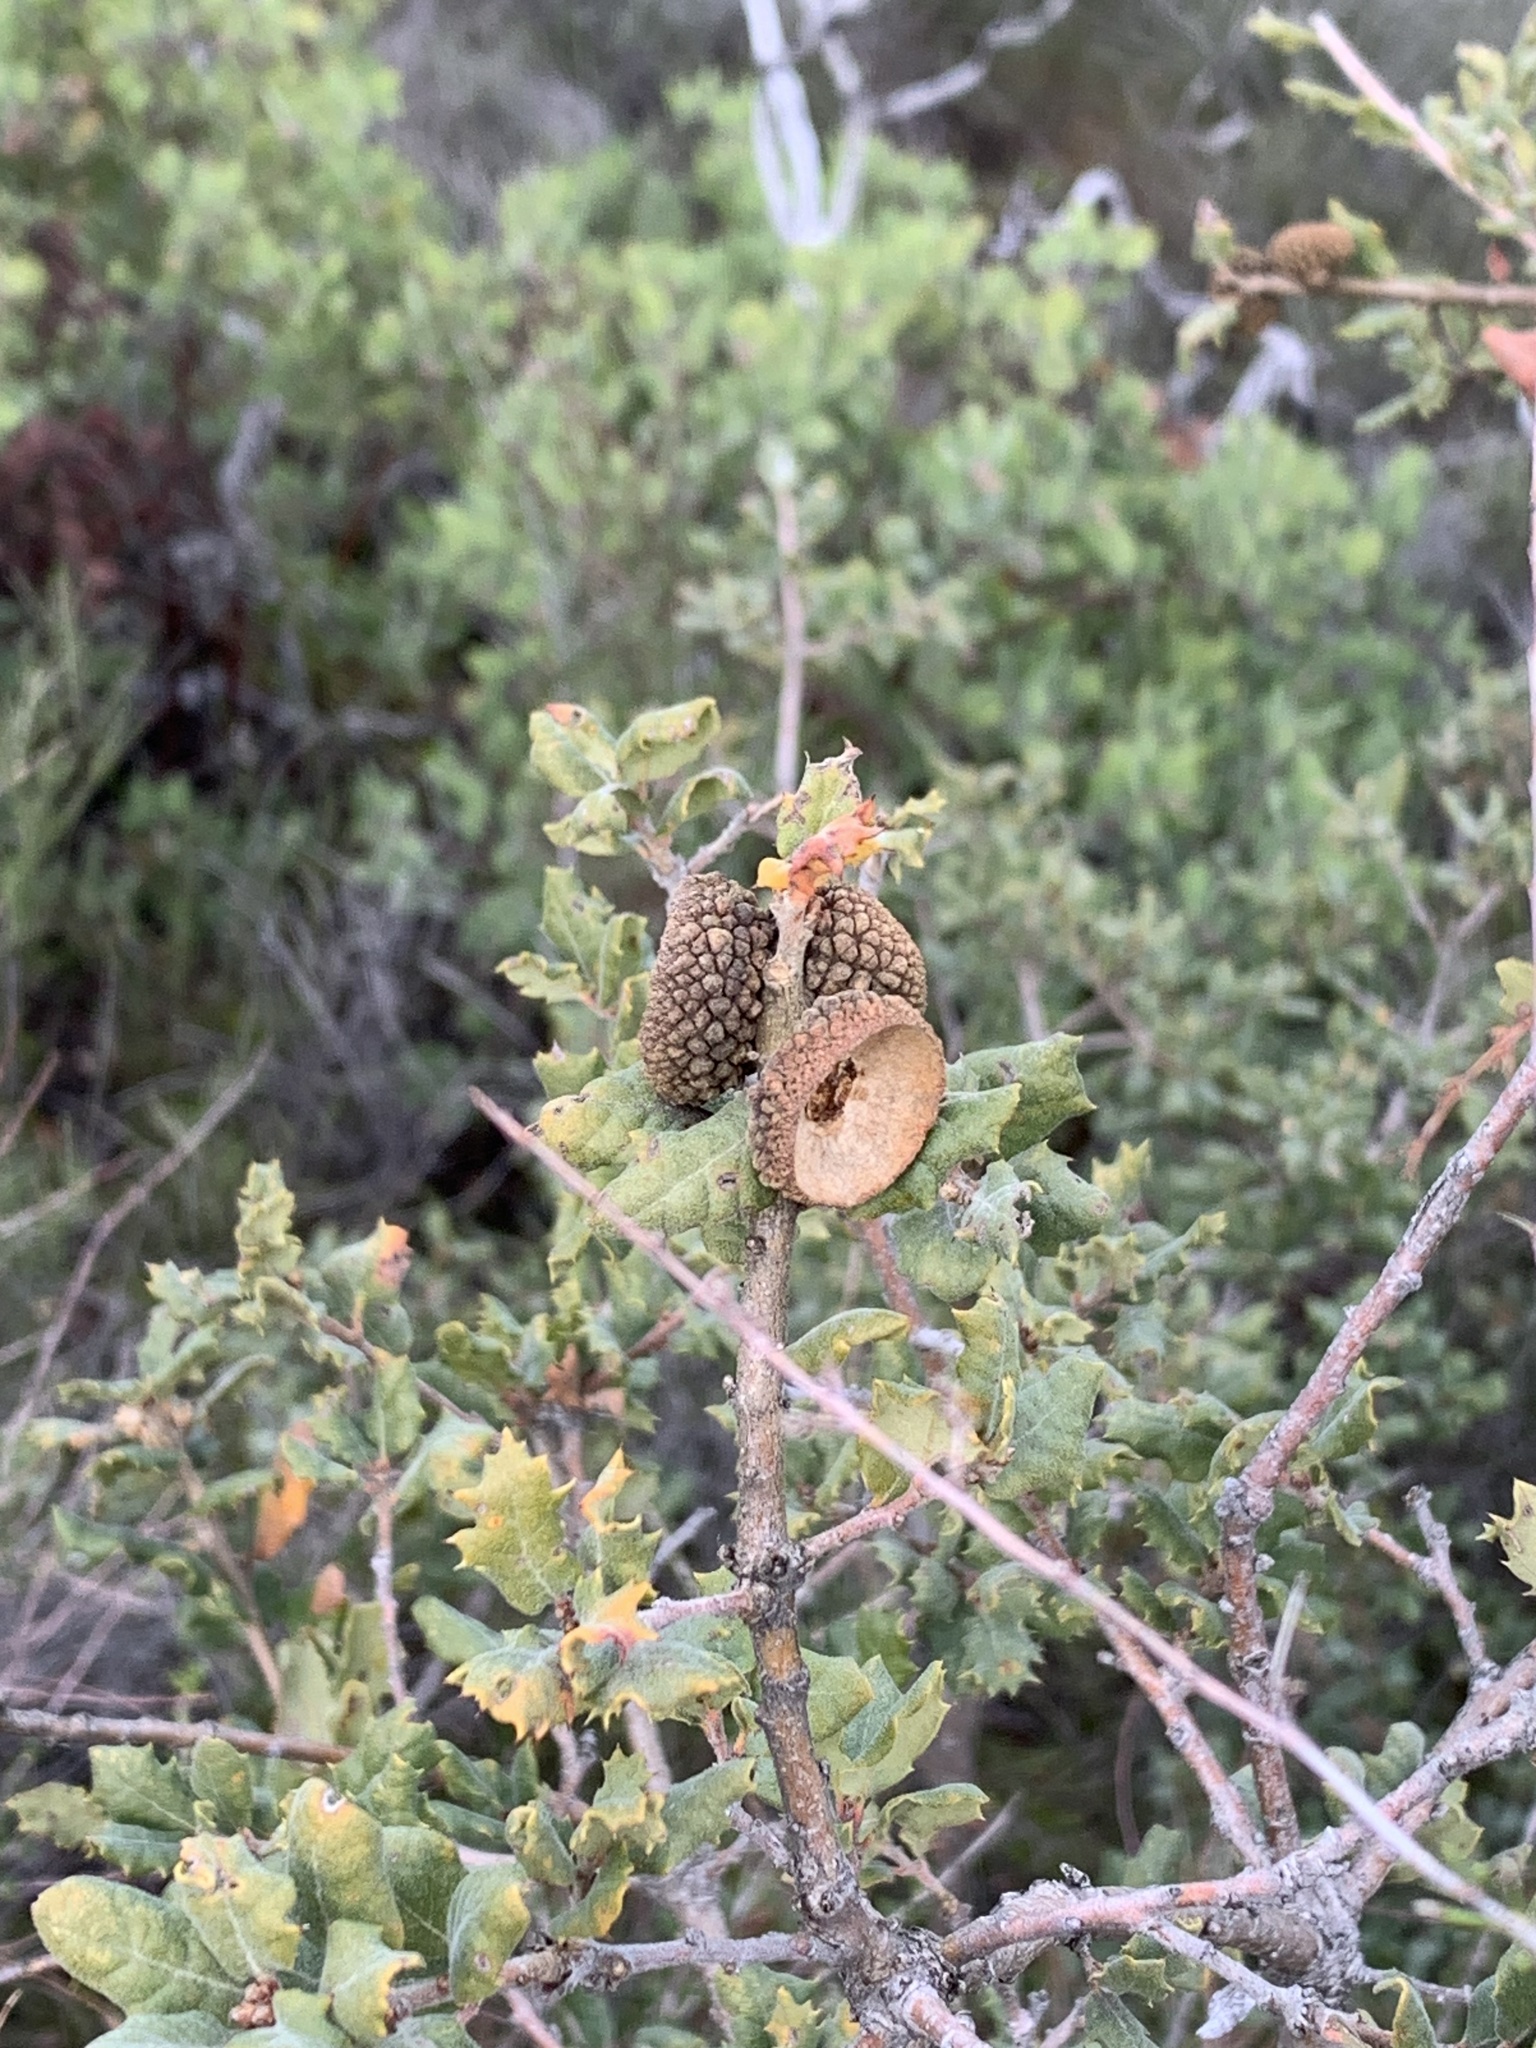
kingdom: Plantae
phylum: Tracheophyta
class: Magnoliopsida
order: Fagales
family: Fagaceae
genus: Quercus
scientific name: Quercus durata
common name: Leather oak
